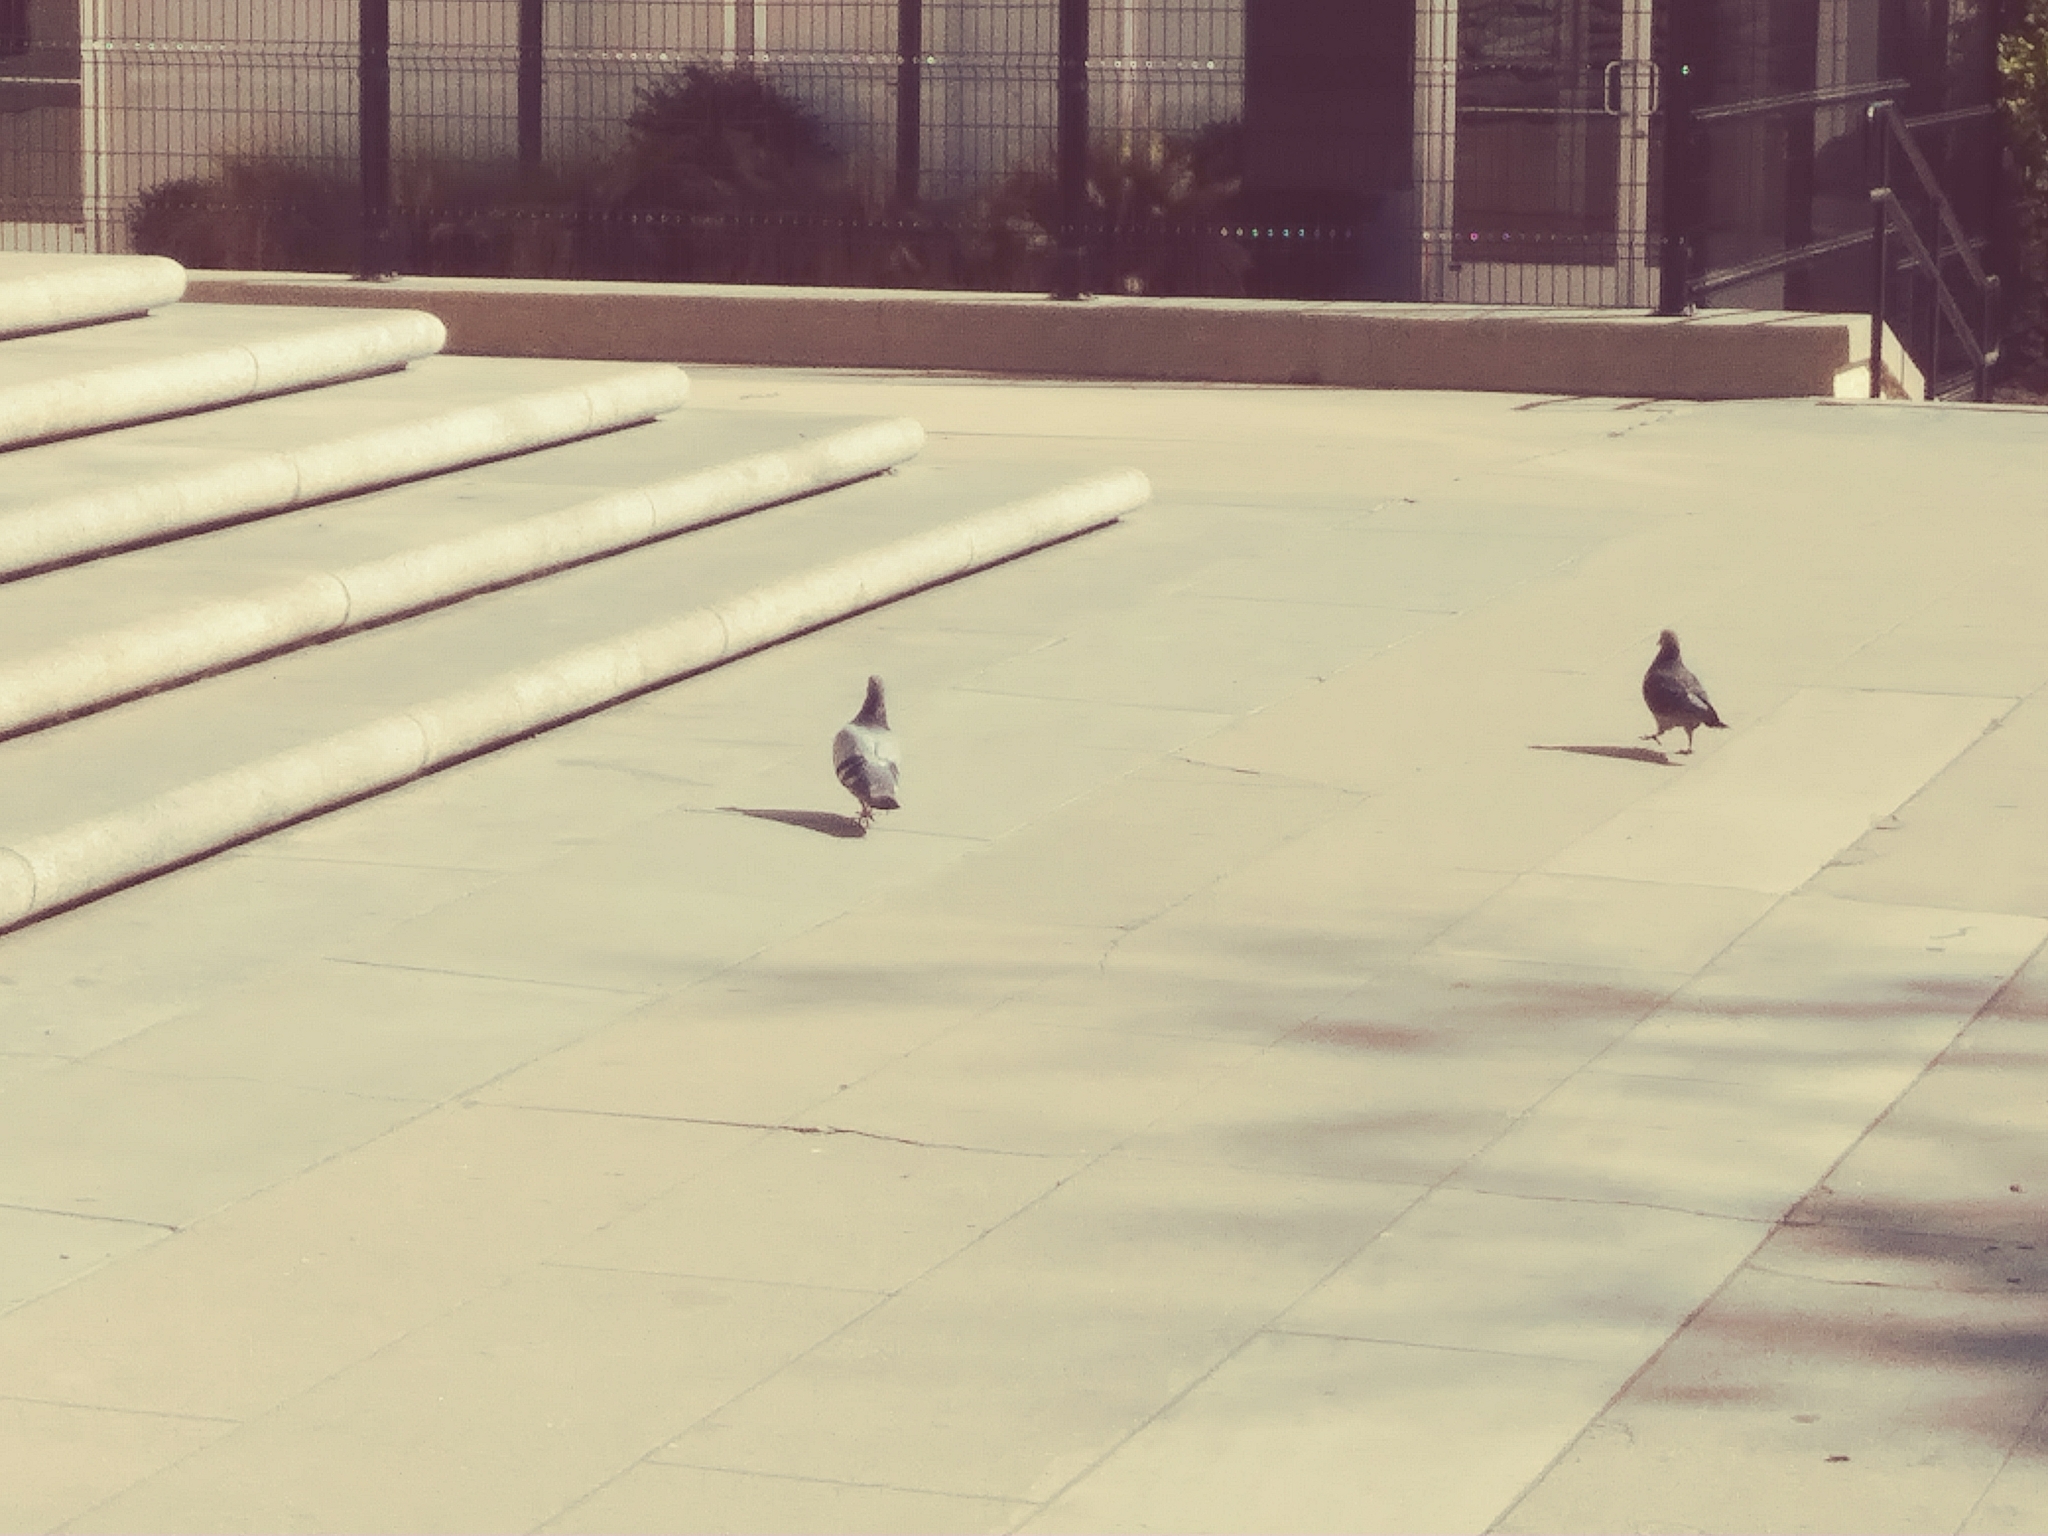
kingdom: Animalia
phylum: Chordata
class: Aves
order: Columbiformes
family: Columbidae
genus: Columba
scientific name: Columba livia
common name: Rock pigeon
